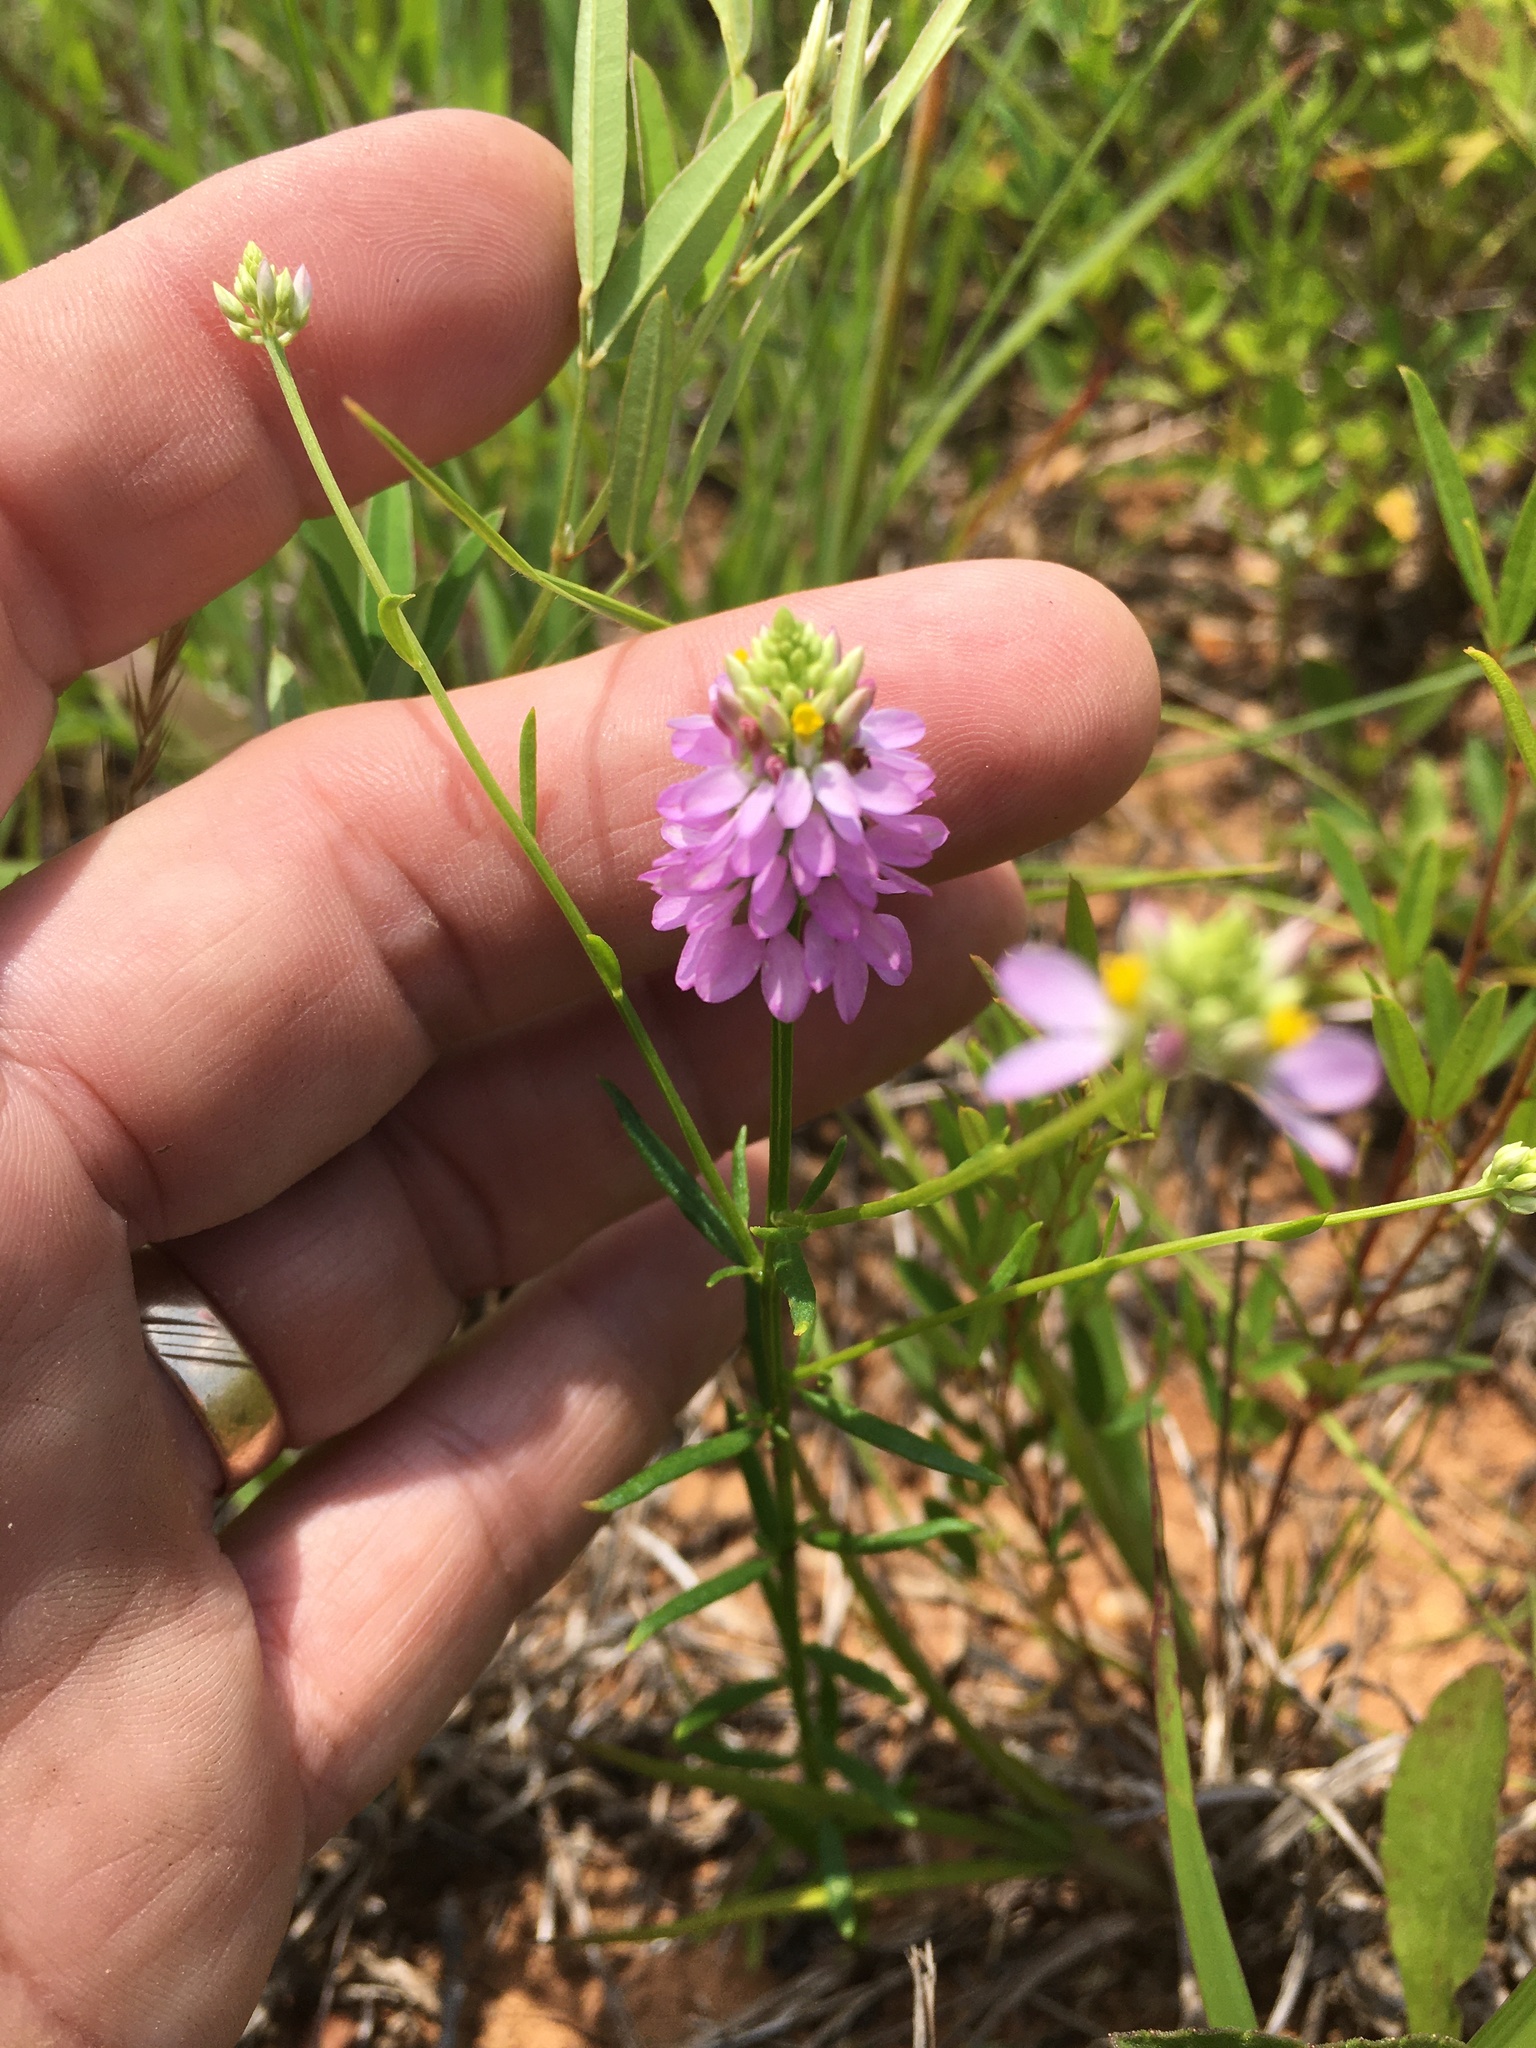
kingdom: Plantae
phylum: Tracheophyta
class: Magnoliopsida
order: Fabales
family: Polygalaceae
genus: Polygala
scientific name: Polygala curtissii
